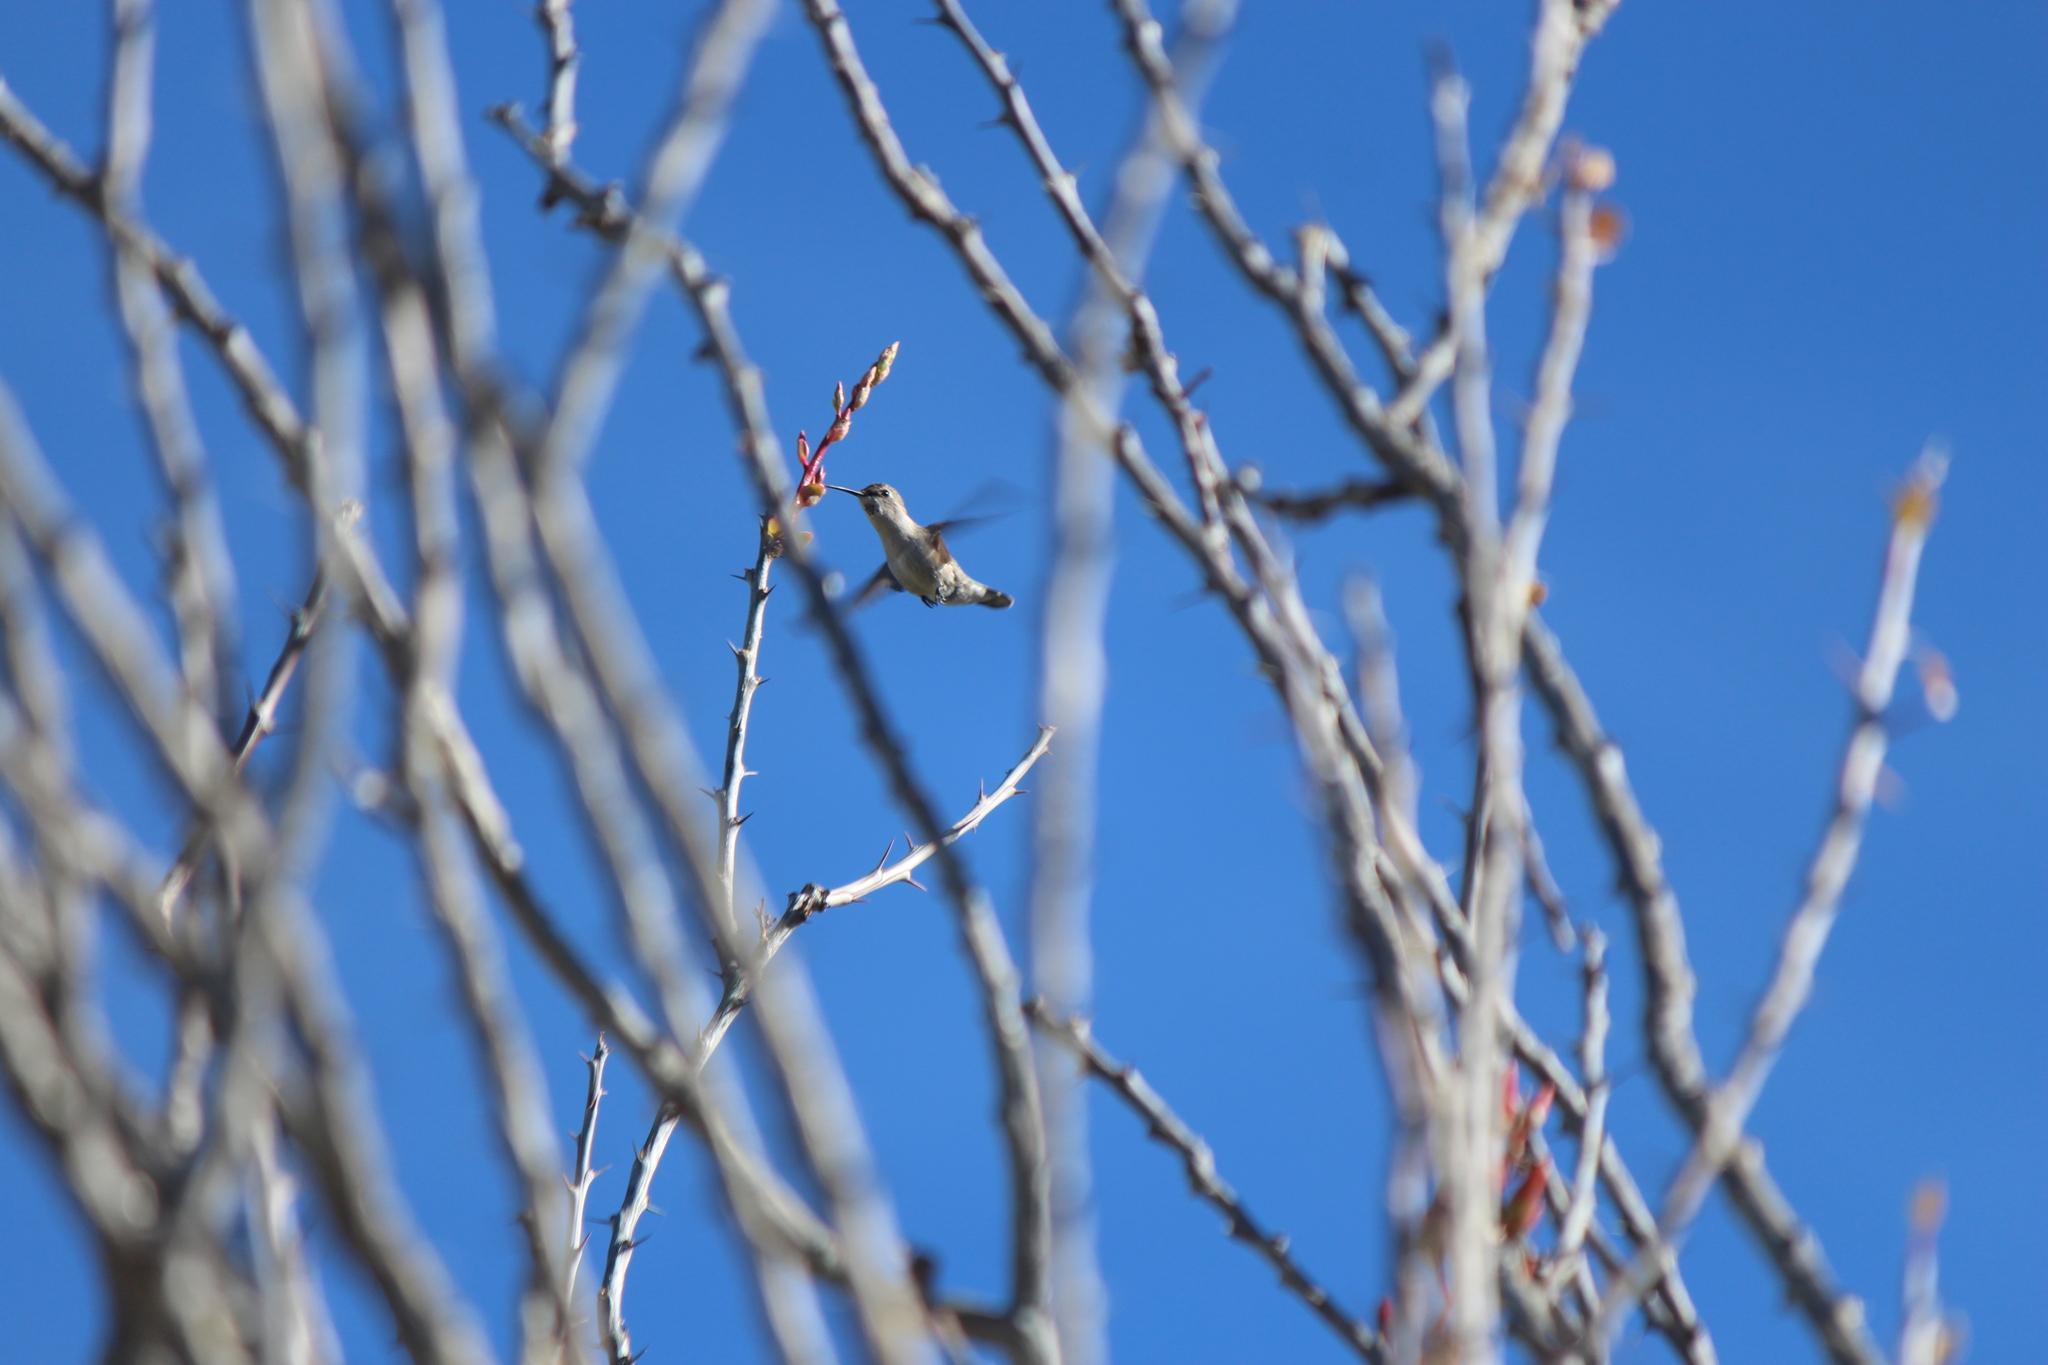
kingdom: Animalia
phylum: Chordata
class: Aves
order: Apodiformes
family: Trochilidae
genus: Calypte
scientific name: Calypte costae
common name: Costa's hummingbird
